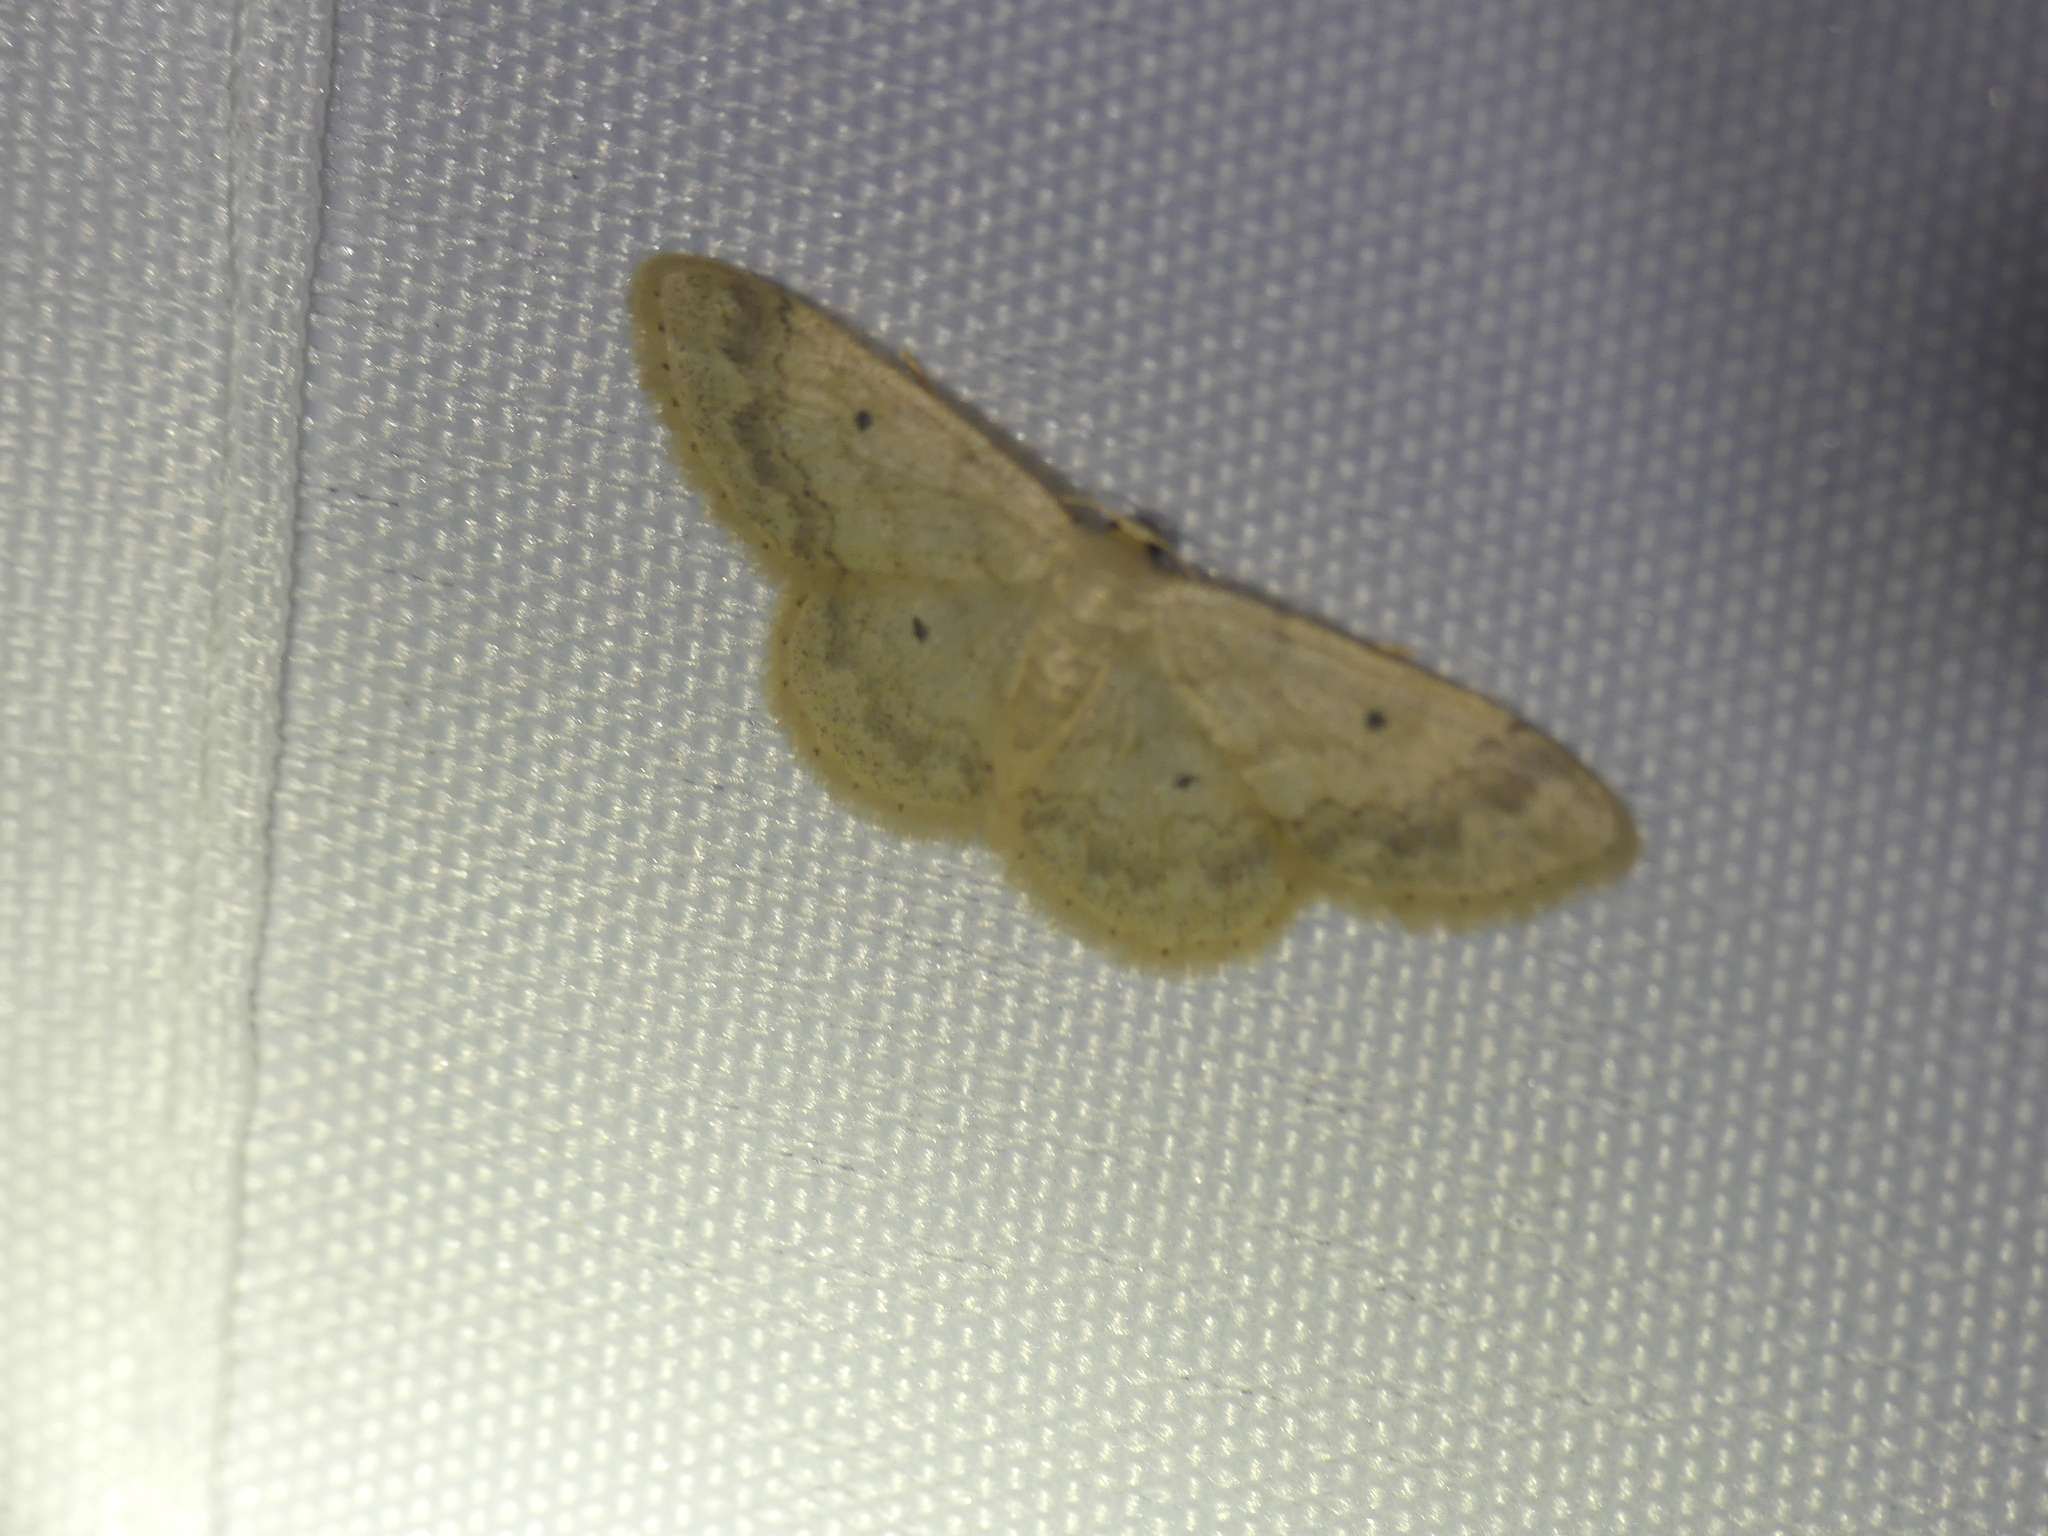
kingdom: Animalia
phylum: Arthropoda
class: Insecta
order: Lepidoptera
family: Geometridae
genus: Idaea
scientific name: Idaea biselata
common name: Small fan-footed wave
